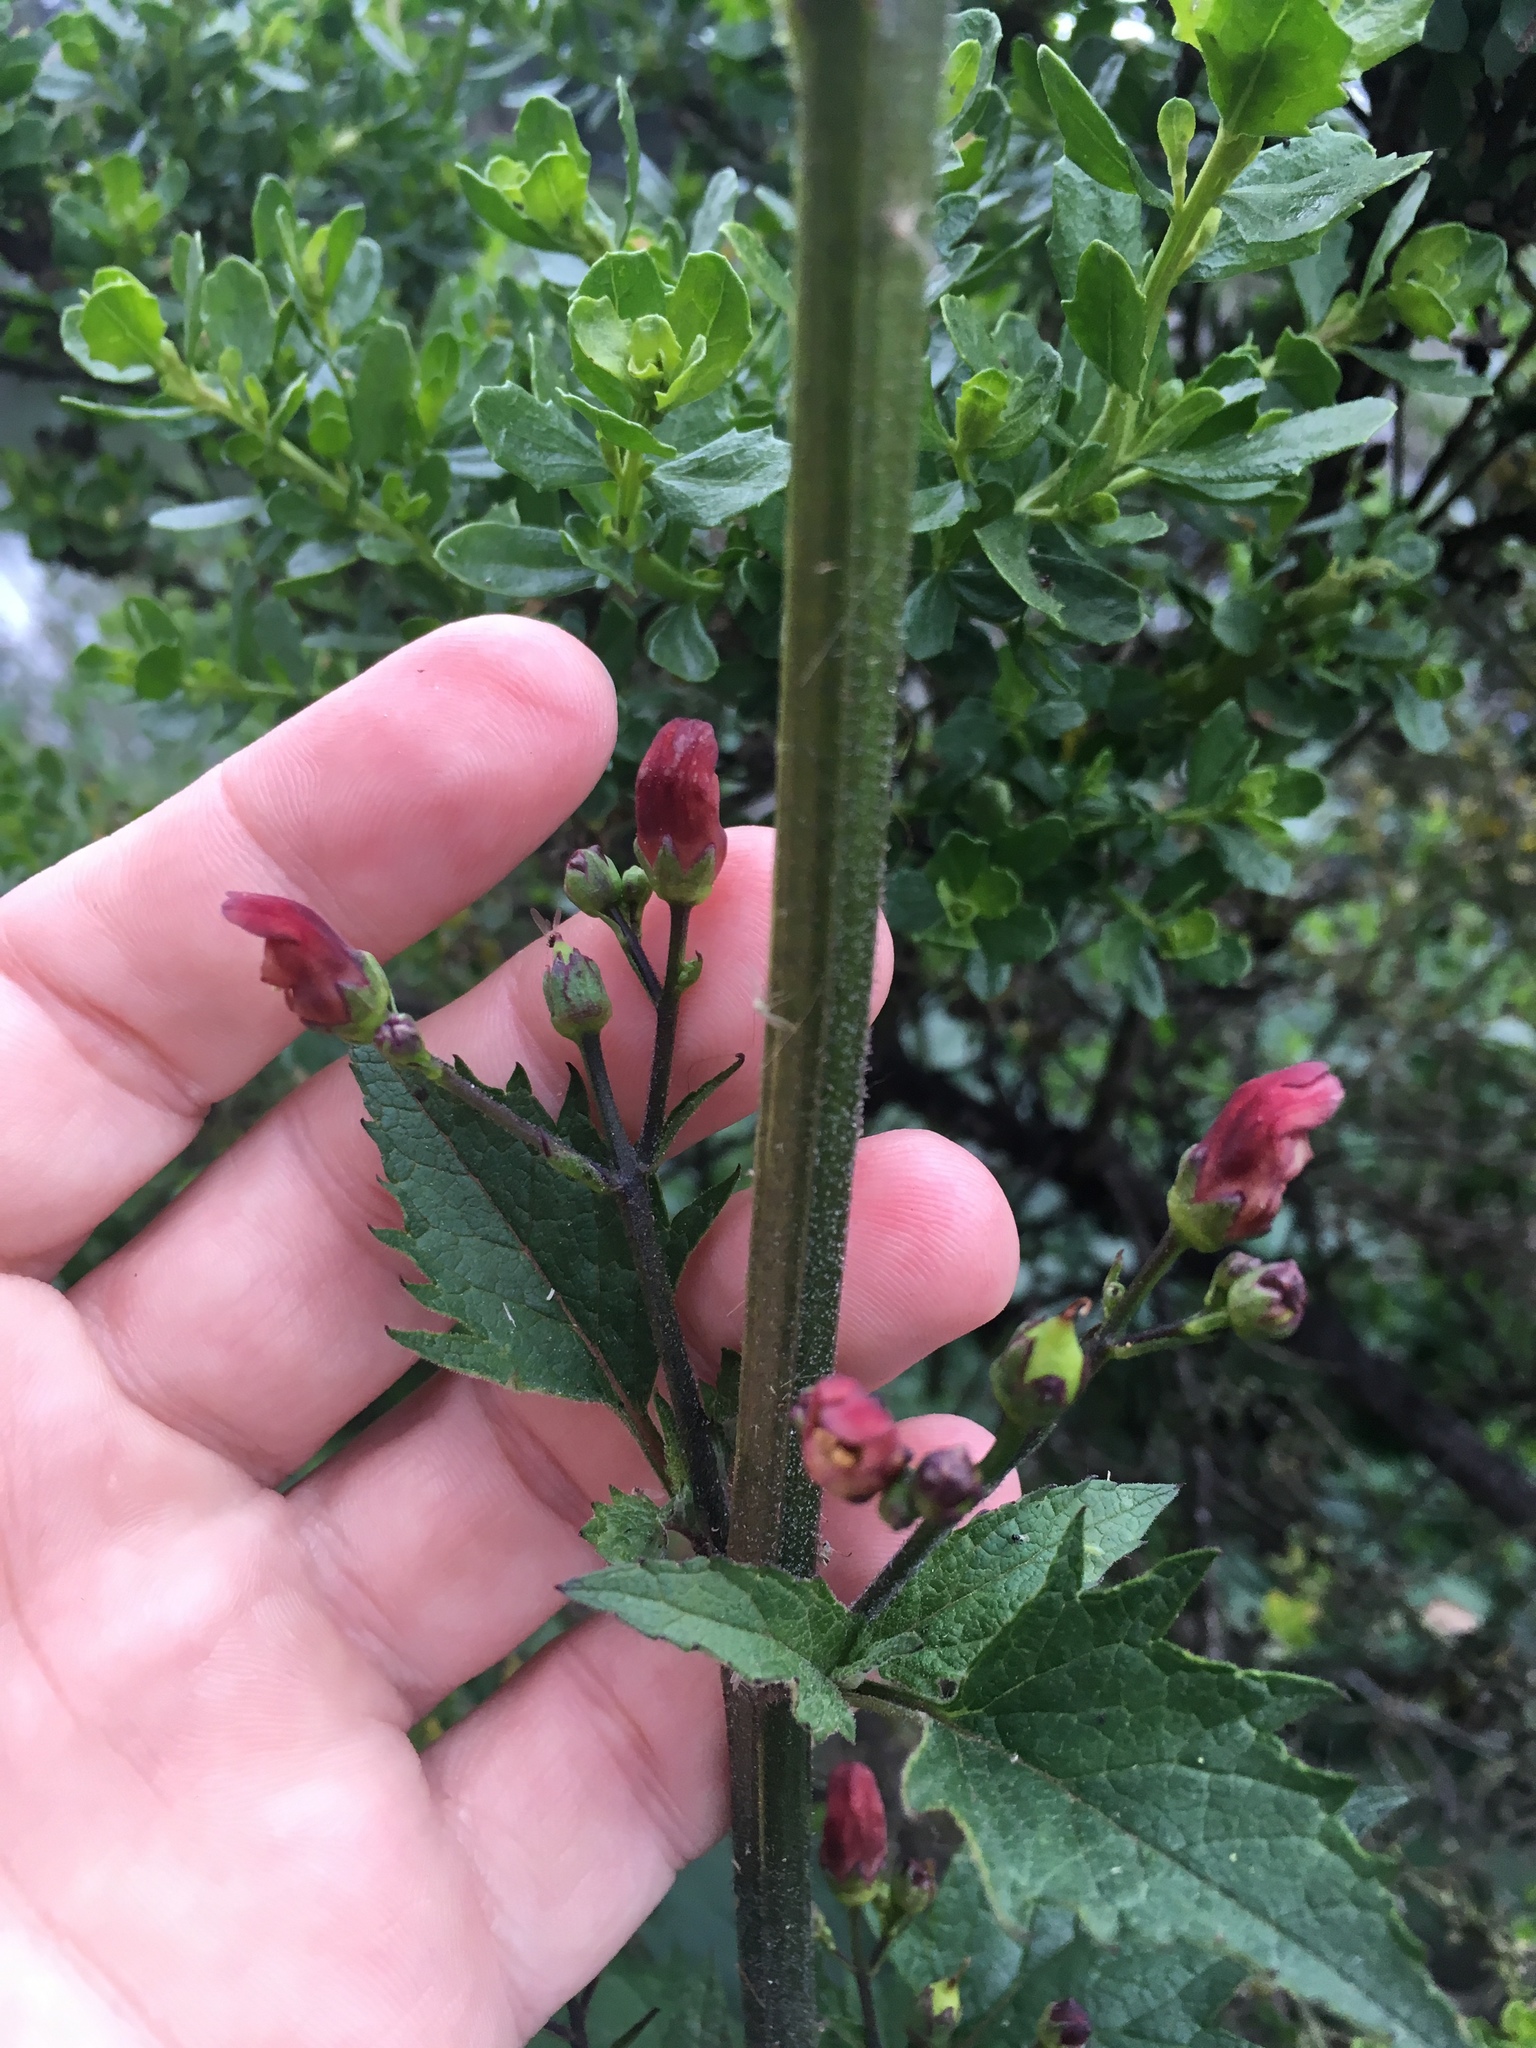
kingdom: Plantae
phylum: Tracheophyta
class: Magnoliopsida
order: Lamiales
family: Scrophulariaceae
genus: Scrophularia
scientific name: Scrophularia californica
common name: California figwort
